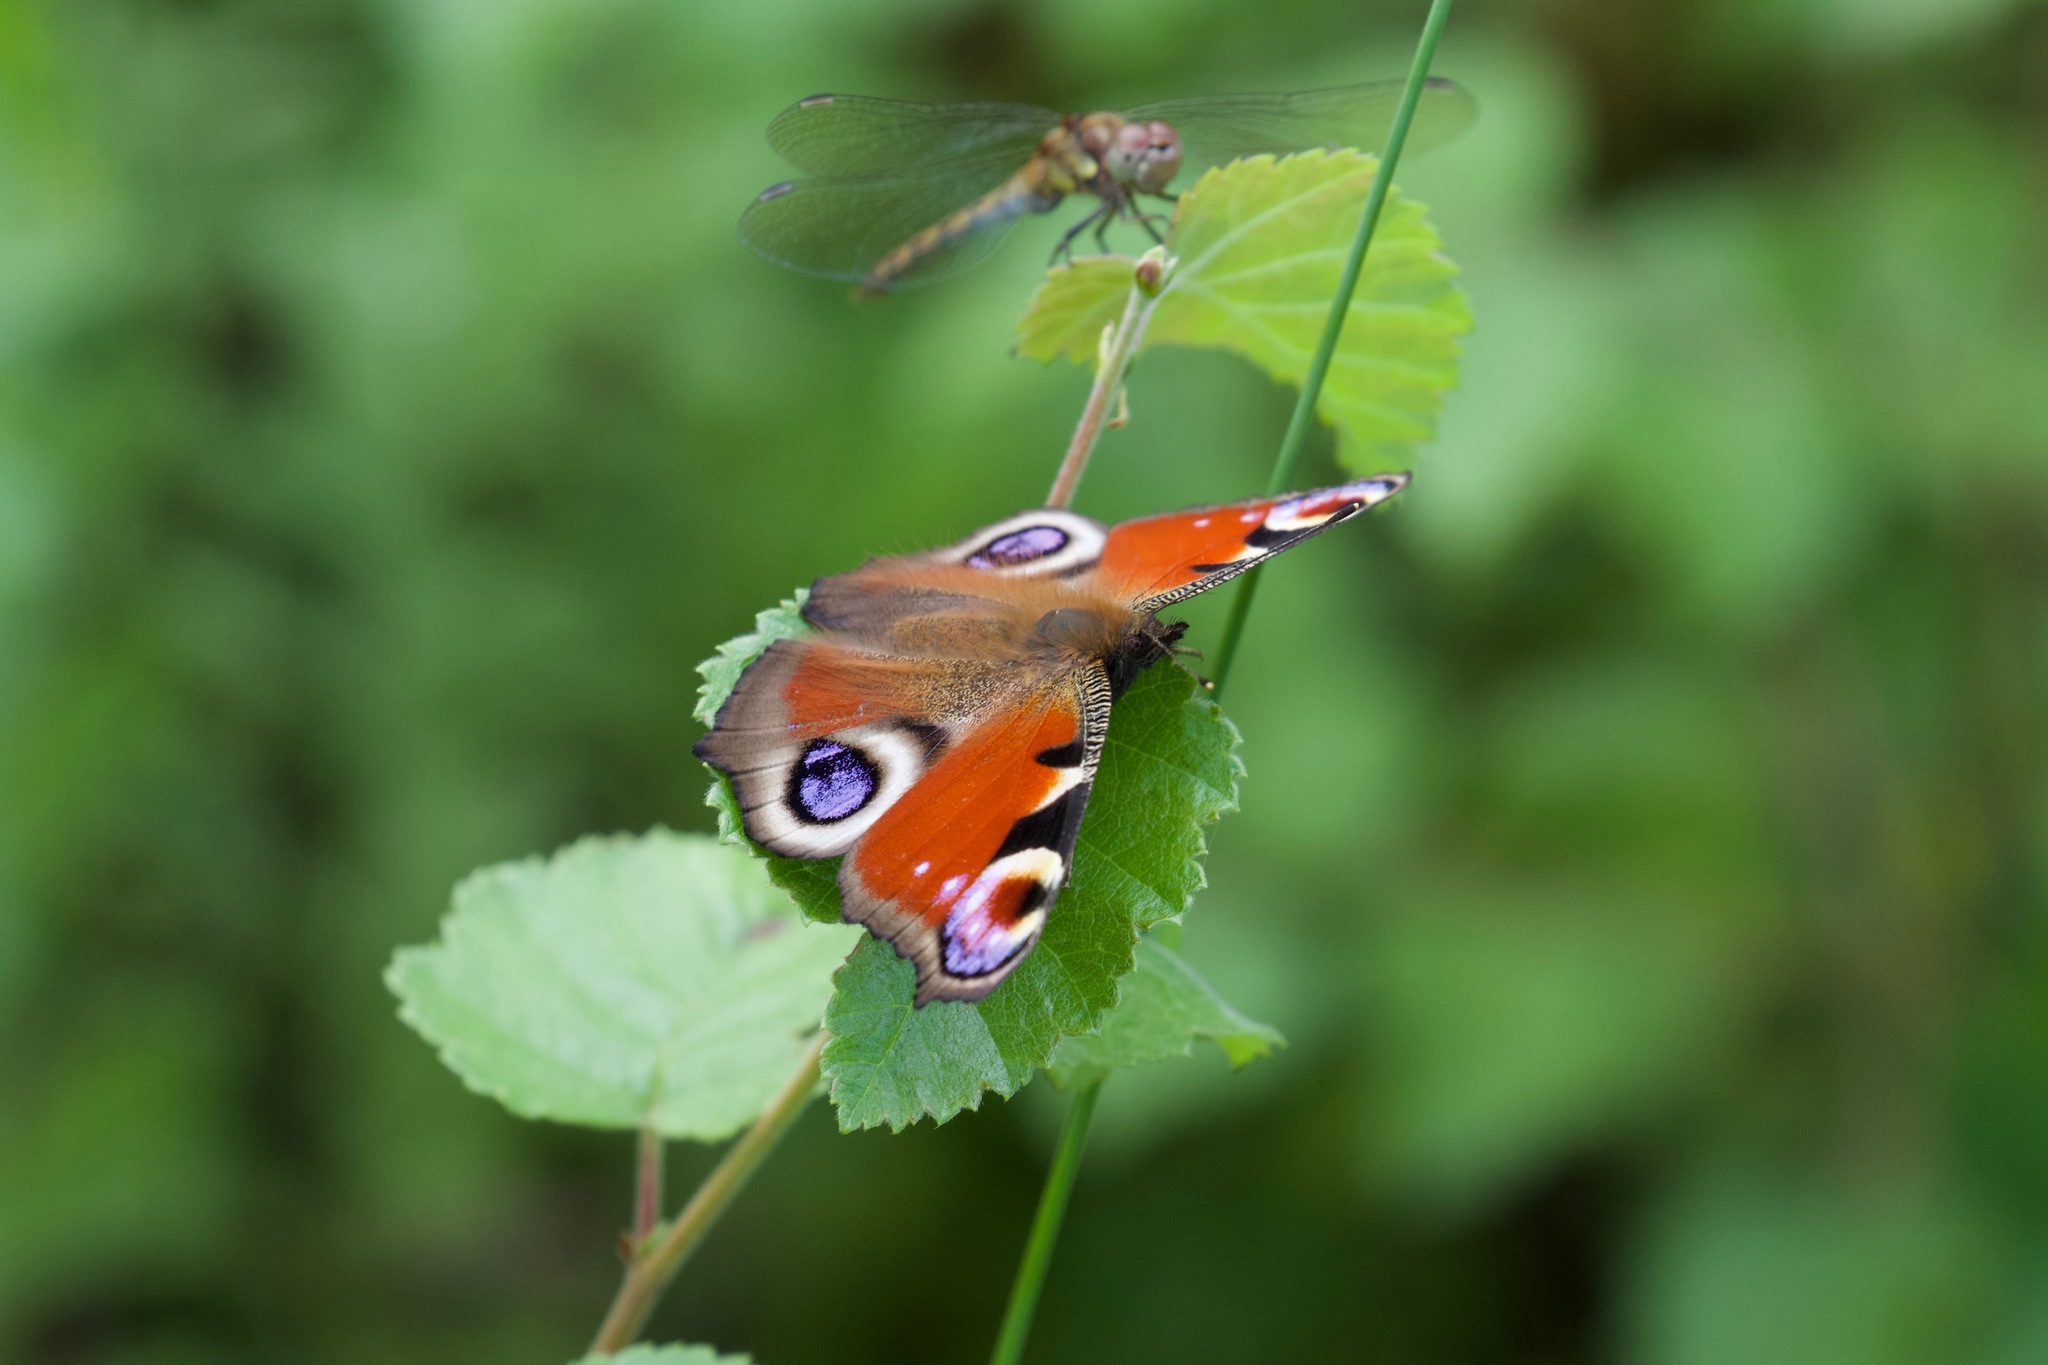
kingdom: Animalia
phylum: Arthropoda
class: Insecta
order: Lepidoptera
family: Nymphalidae
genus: Aglais
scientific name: Aglais io
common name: Peacock
